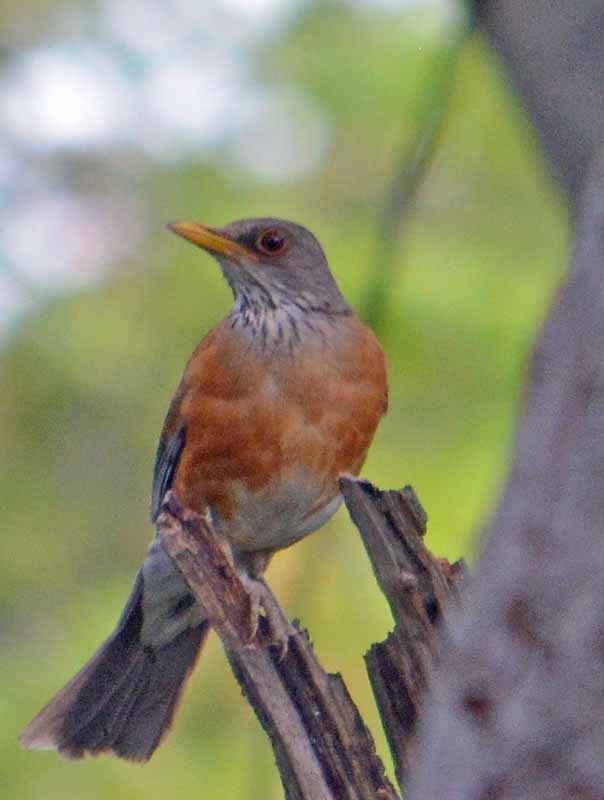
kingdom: Animalia
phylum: Chordata
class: Aves
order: Passeriformes
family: Turdidae
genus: Turdus
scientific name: Turdus rufopalliatus
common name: Rufous-backed robin
